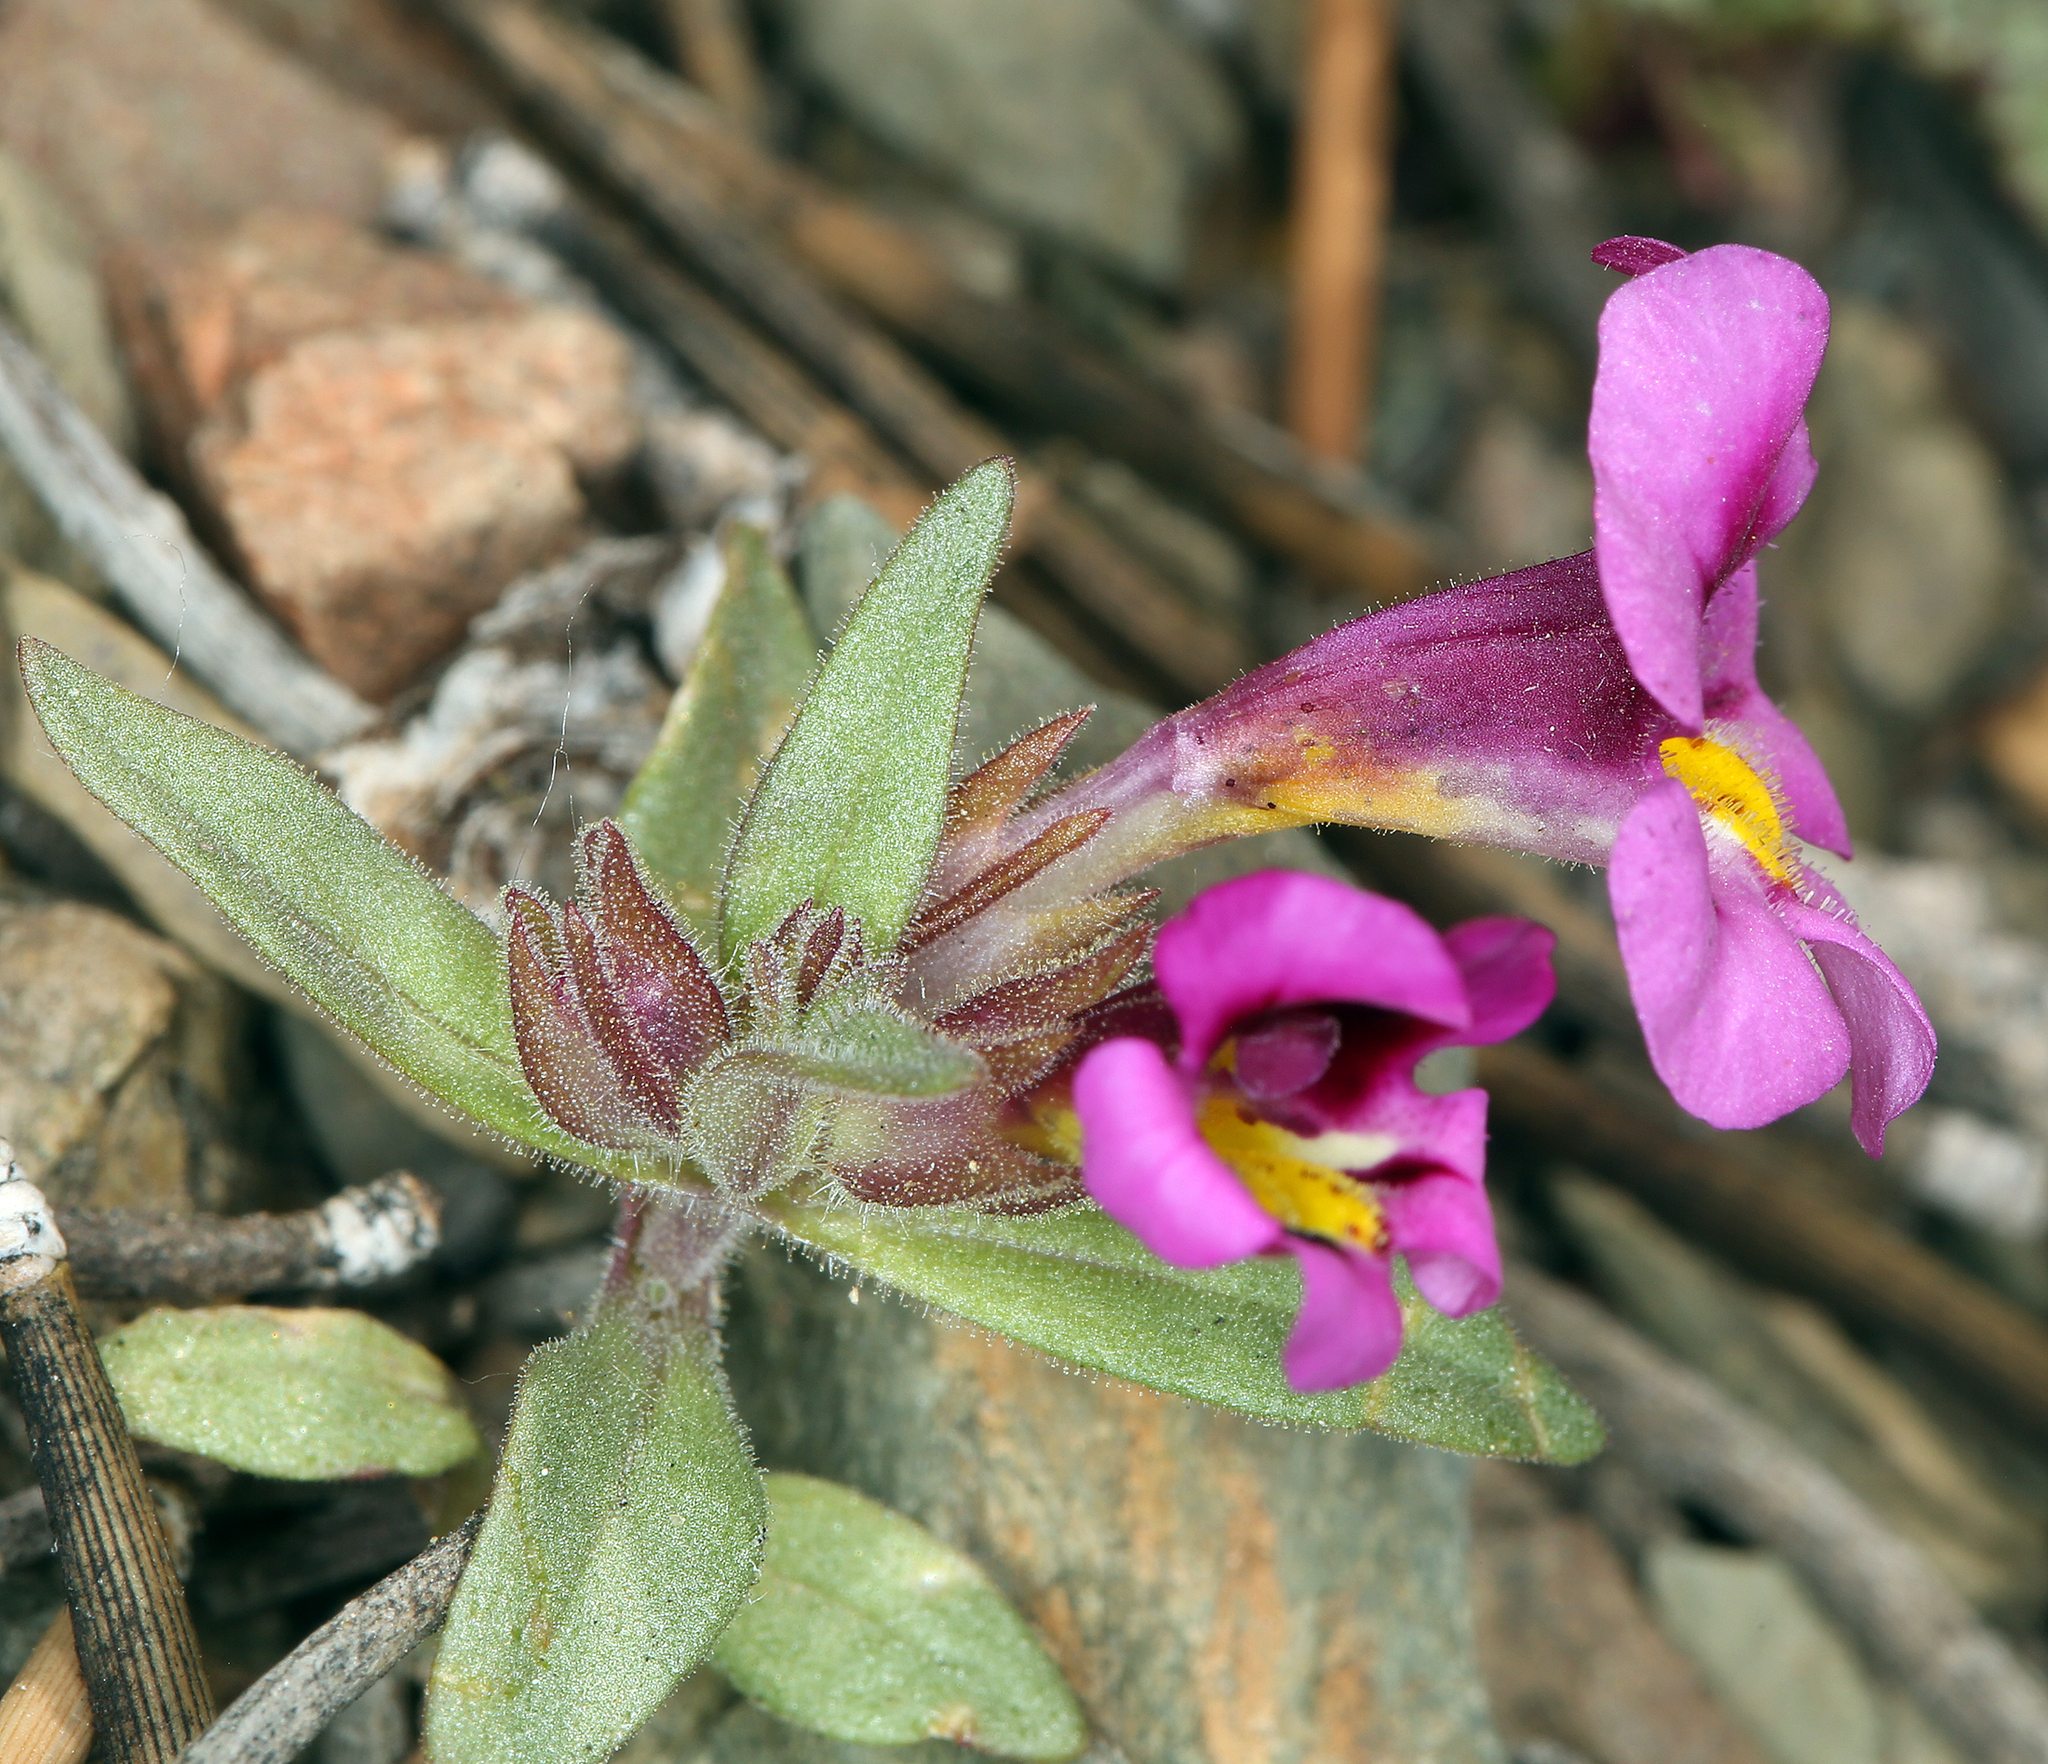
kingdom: Plantae
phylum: Tracheophyta
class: Magnoliopsida
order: Lamiales
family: Phrymaceae
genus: Diplacus
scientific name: Diplacus mephiticus
